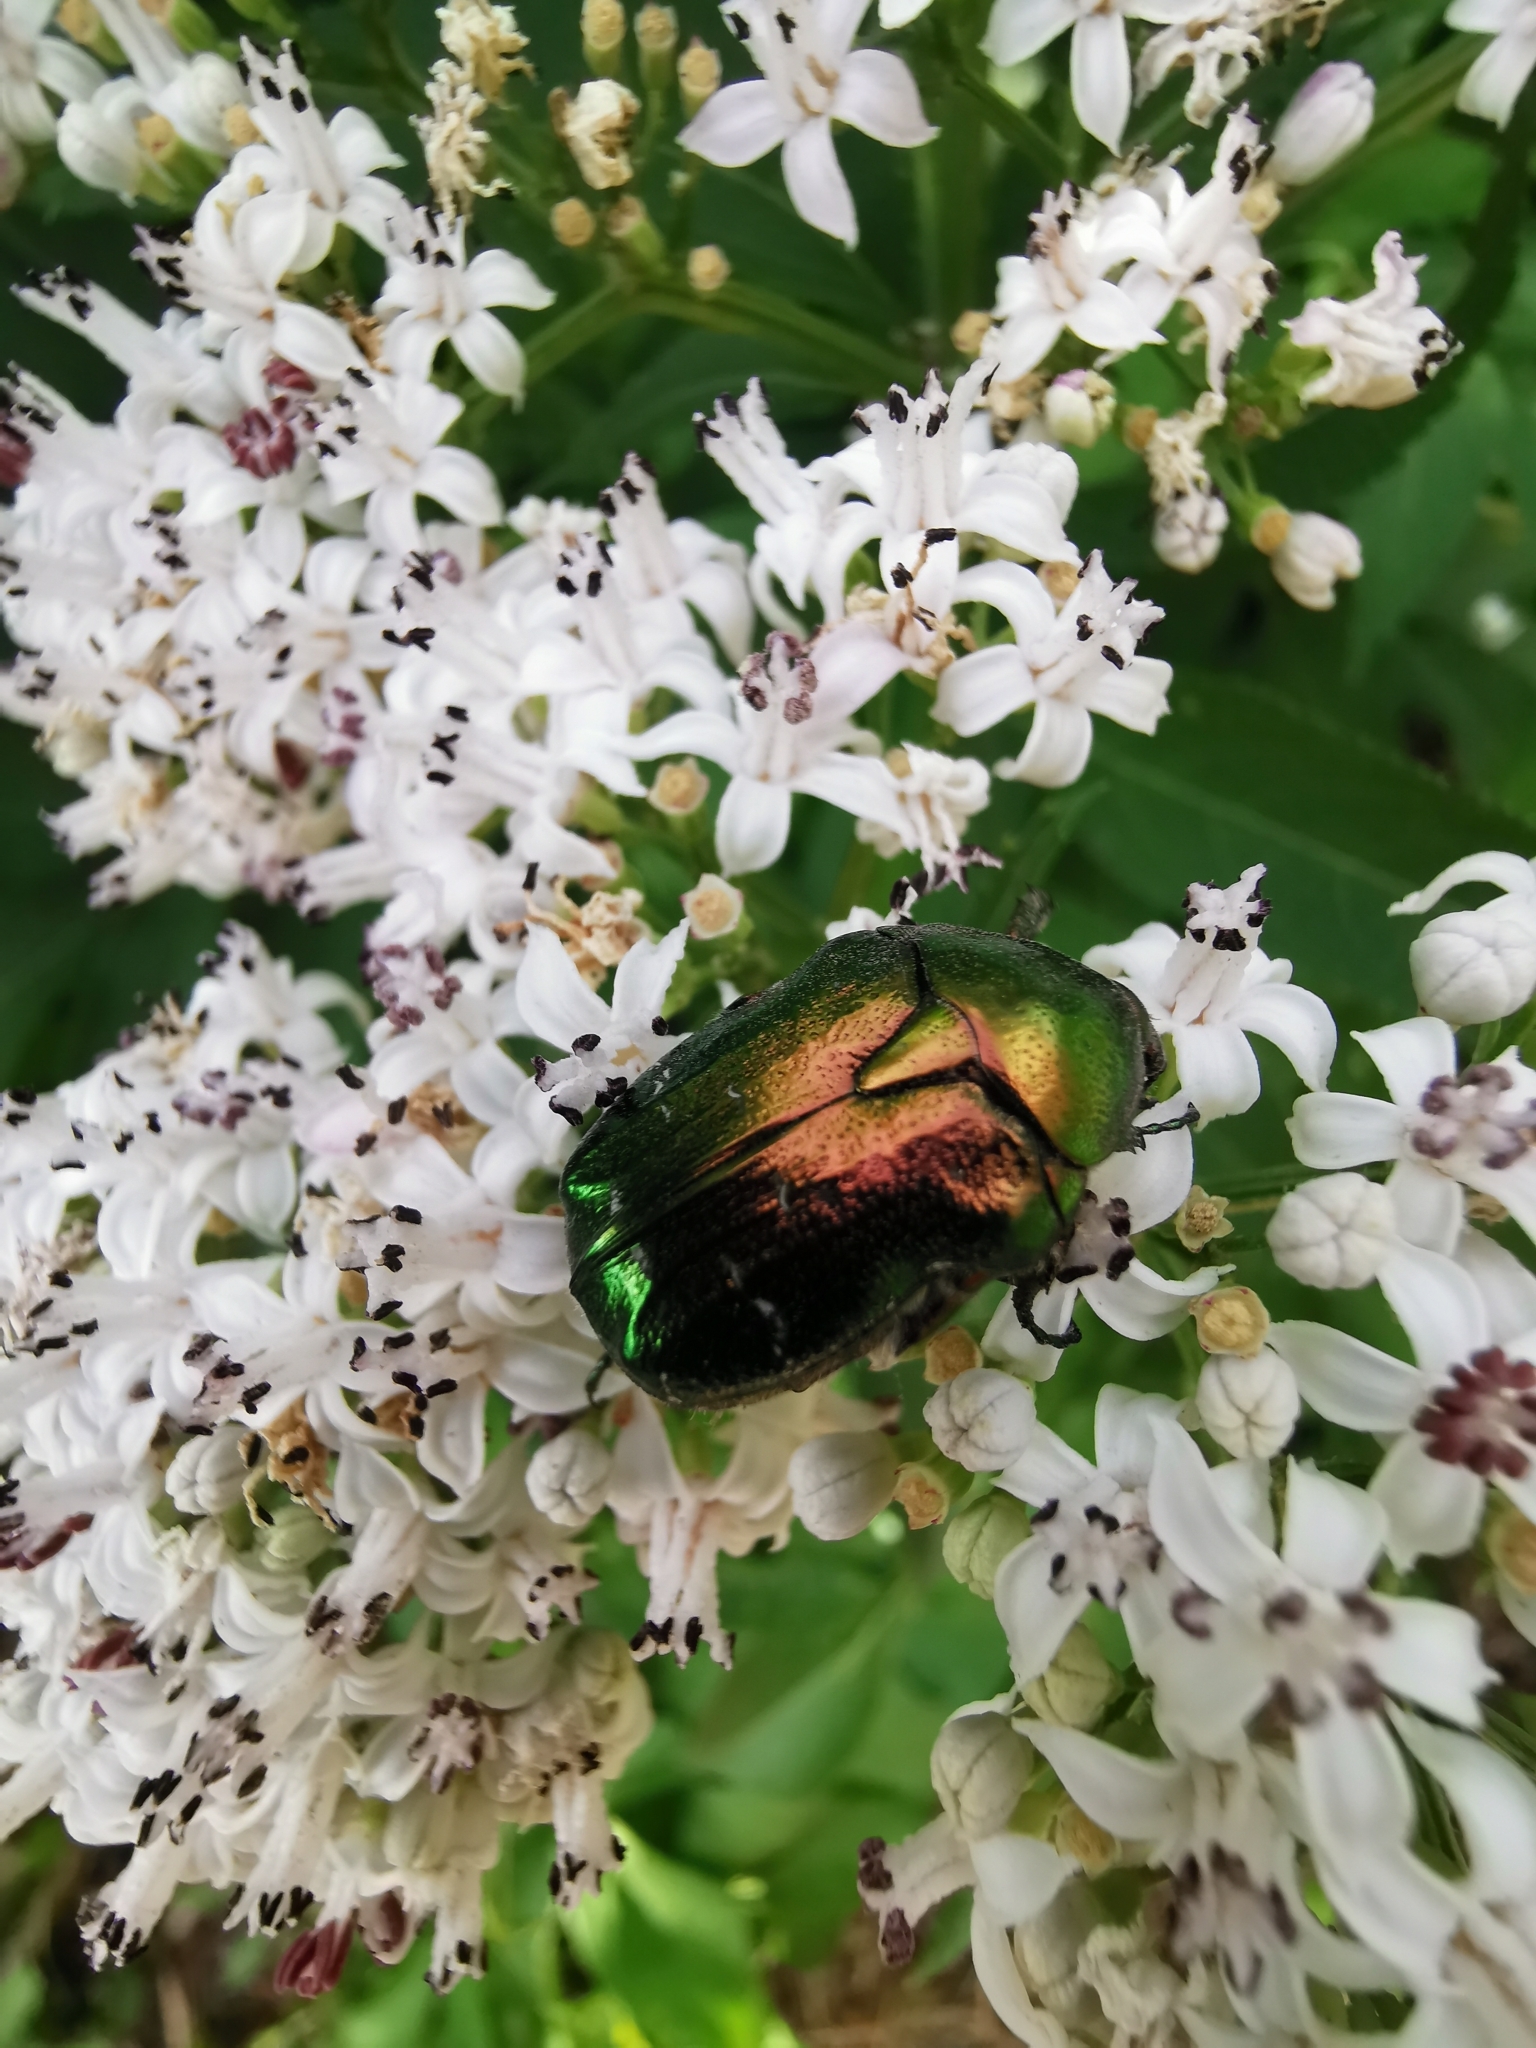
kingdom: Animalia
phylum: Arthropoda
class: Insecta
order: Coleoptera
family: Scarabaeidae
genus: Cetonia
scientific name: Cetonia aurata
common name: Rose chafer
